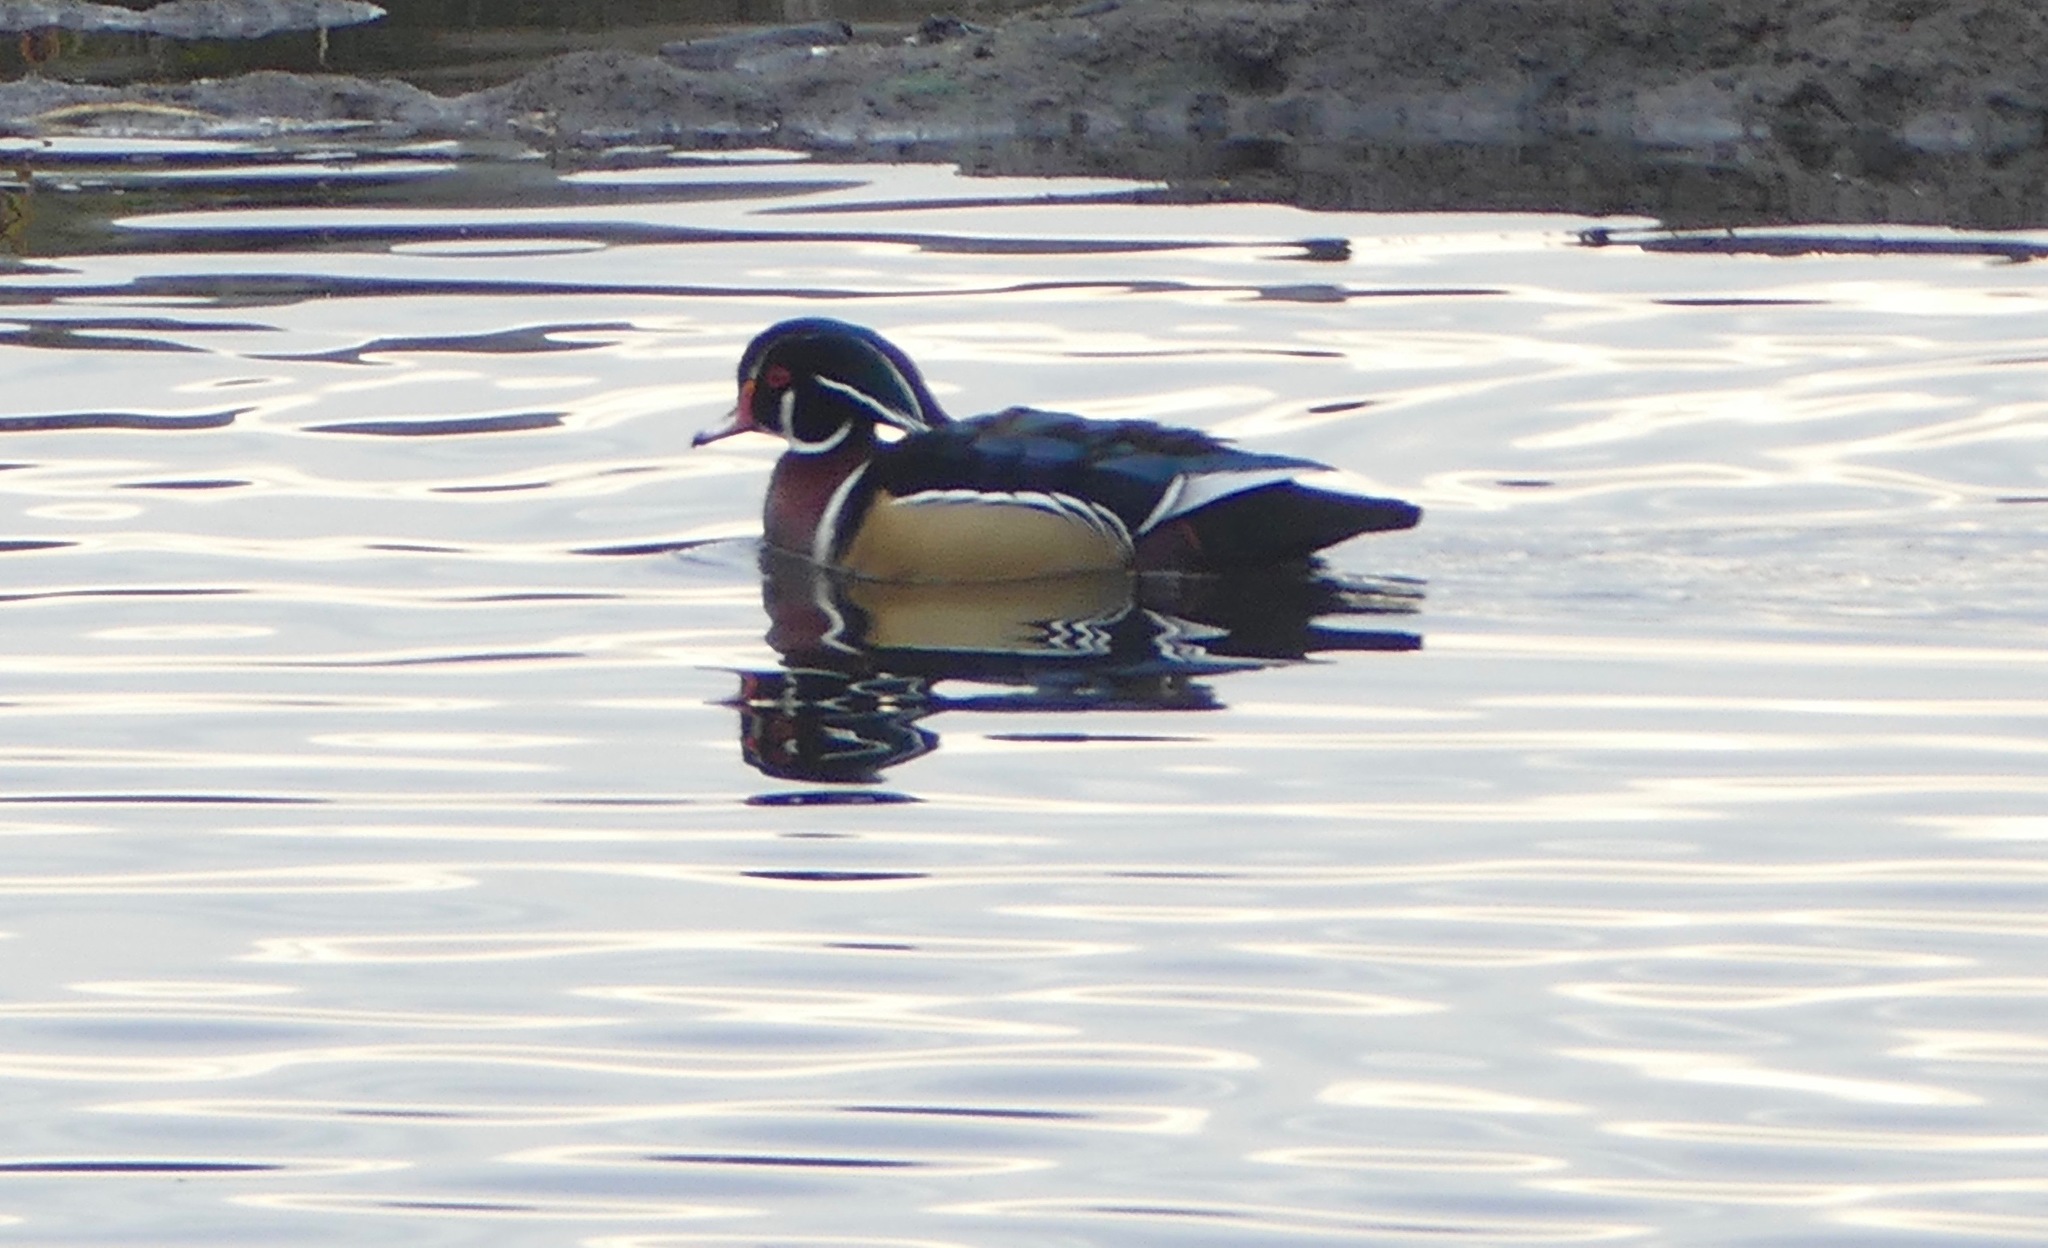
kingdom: Animalia
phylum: Chordata
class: Aves
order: Anseriformes
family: Anatidae
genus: Aix
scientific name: Aix sponsa
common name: Wood duck
